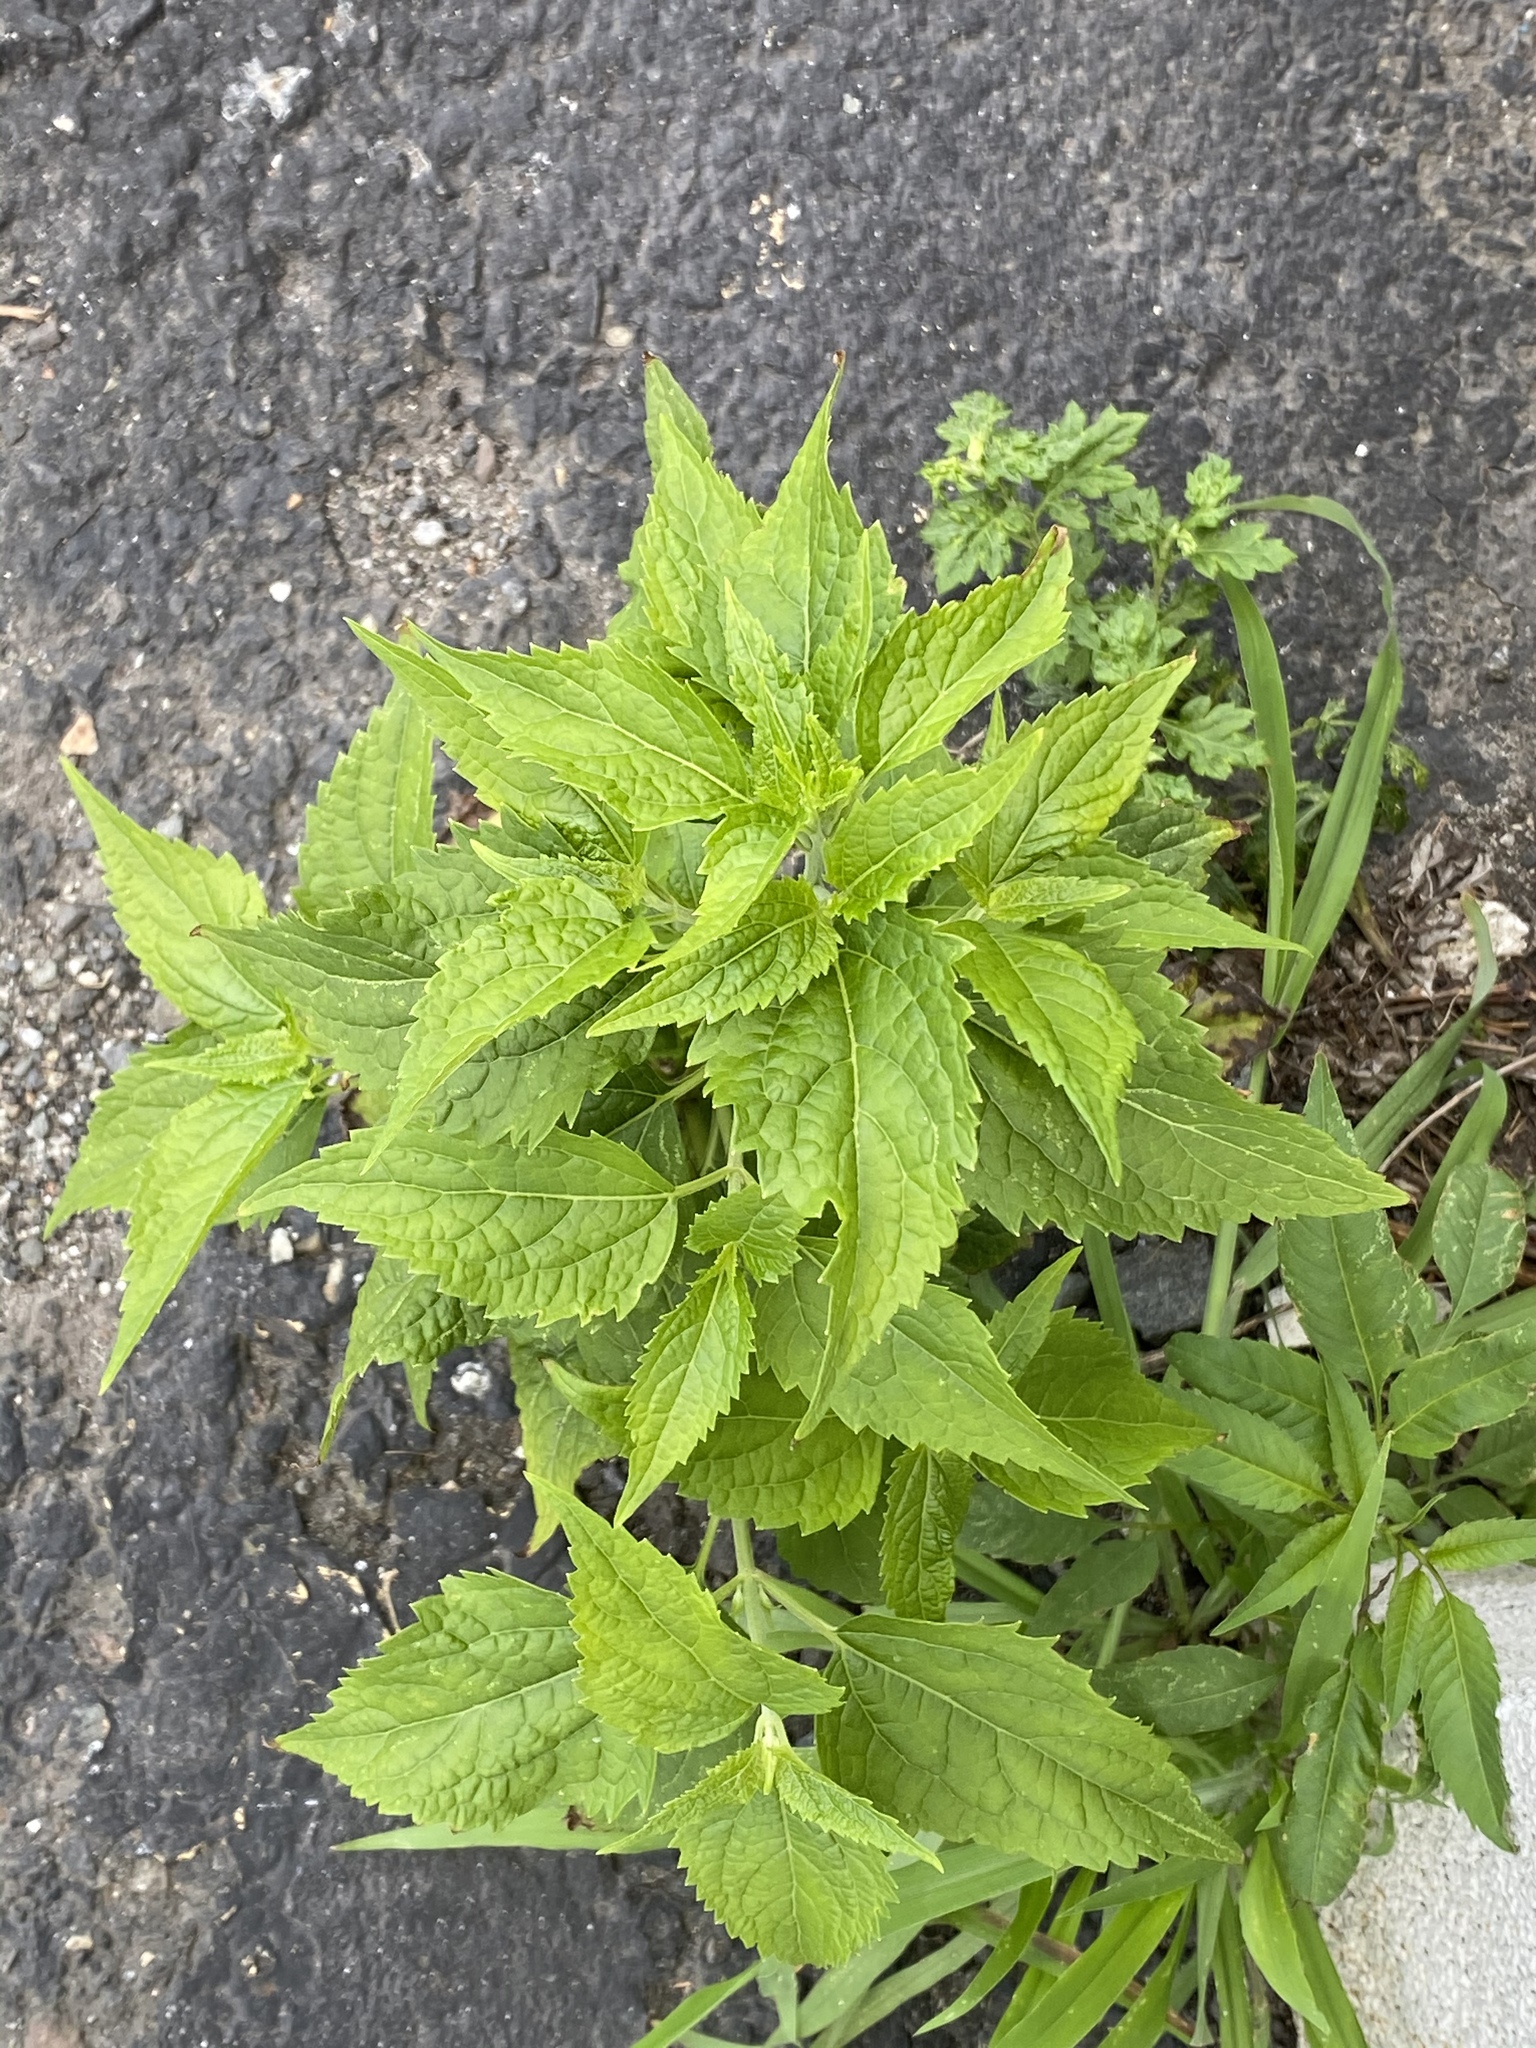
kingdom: Plantae
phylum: Tracheophyta
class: Magnoliopsida
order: Asterales
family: Asteraceae
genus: Ageratina
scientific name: Ageratina altissima
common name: White snakeroot
